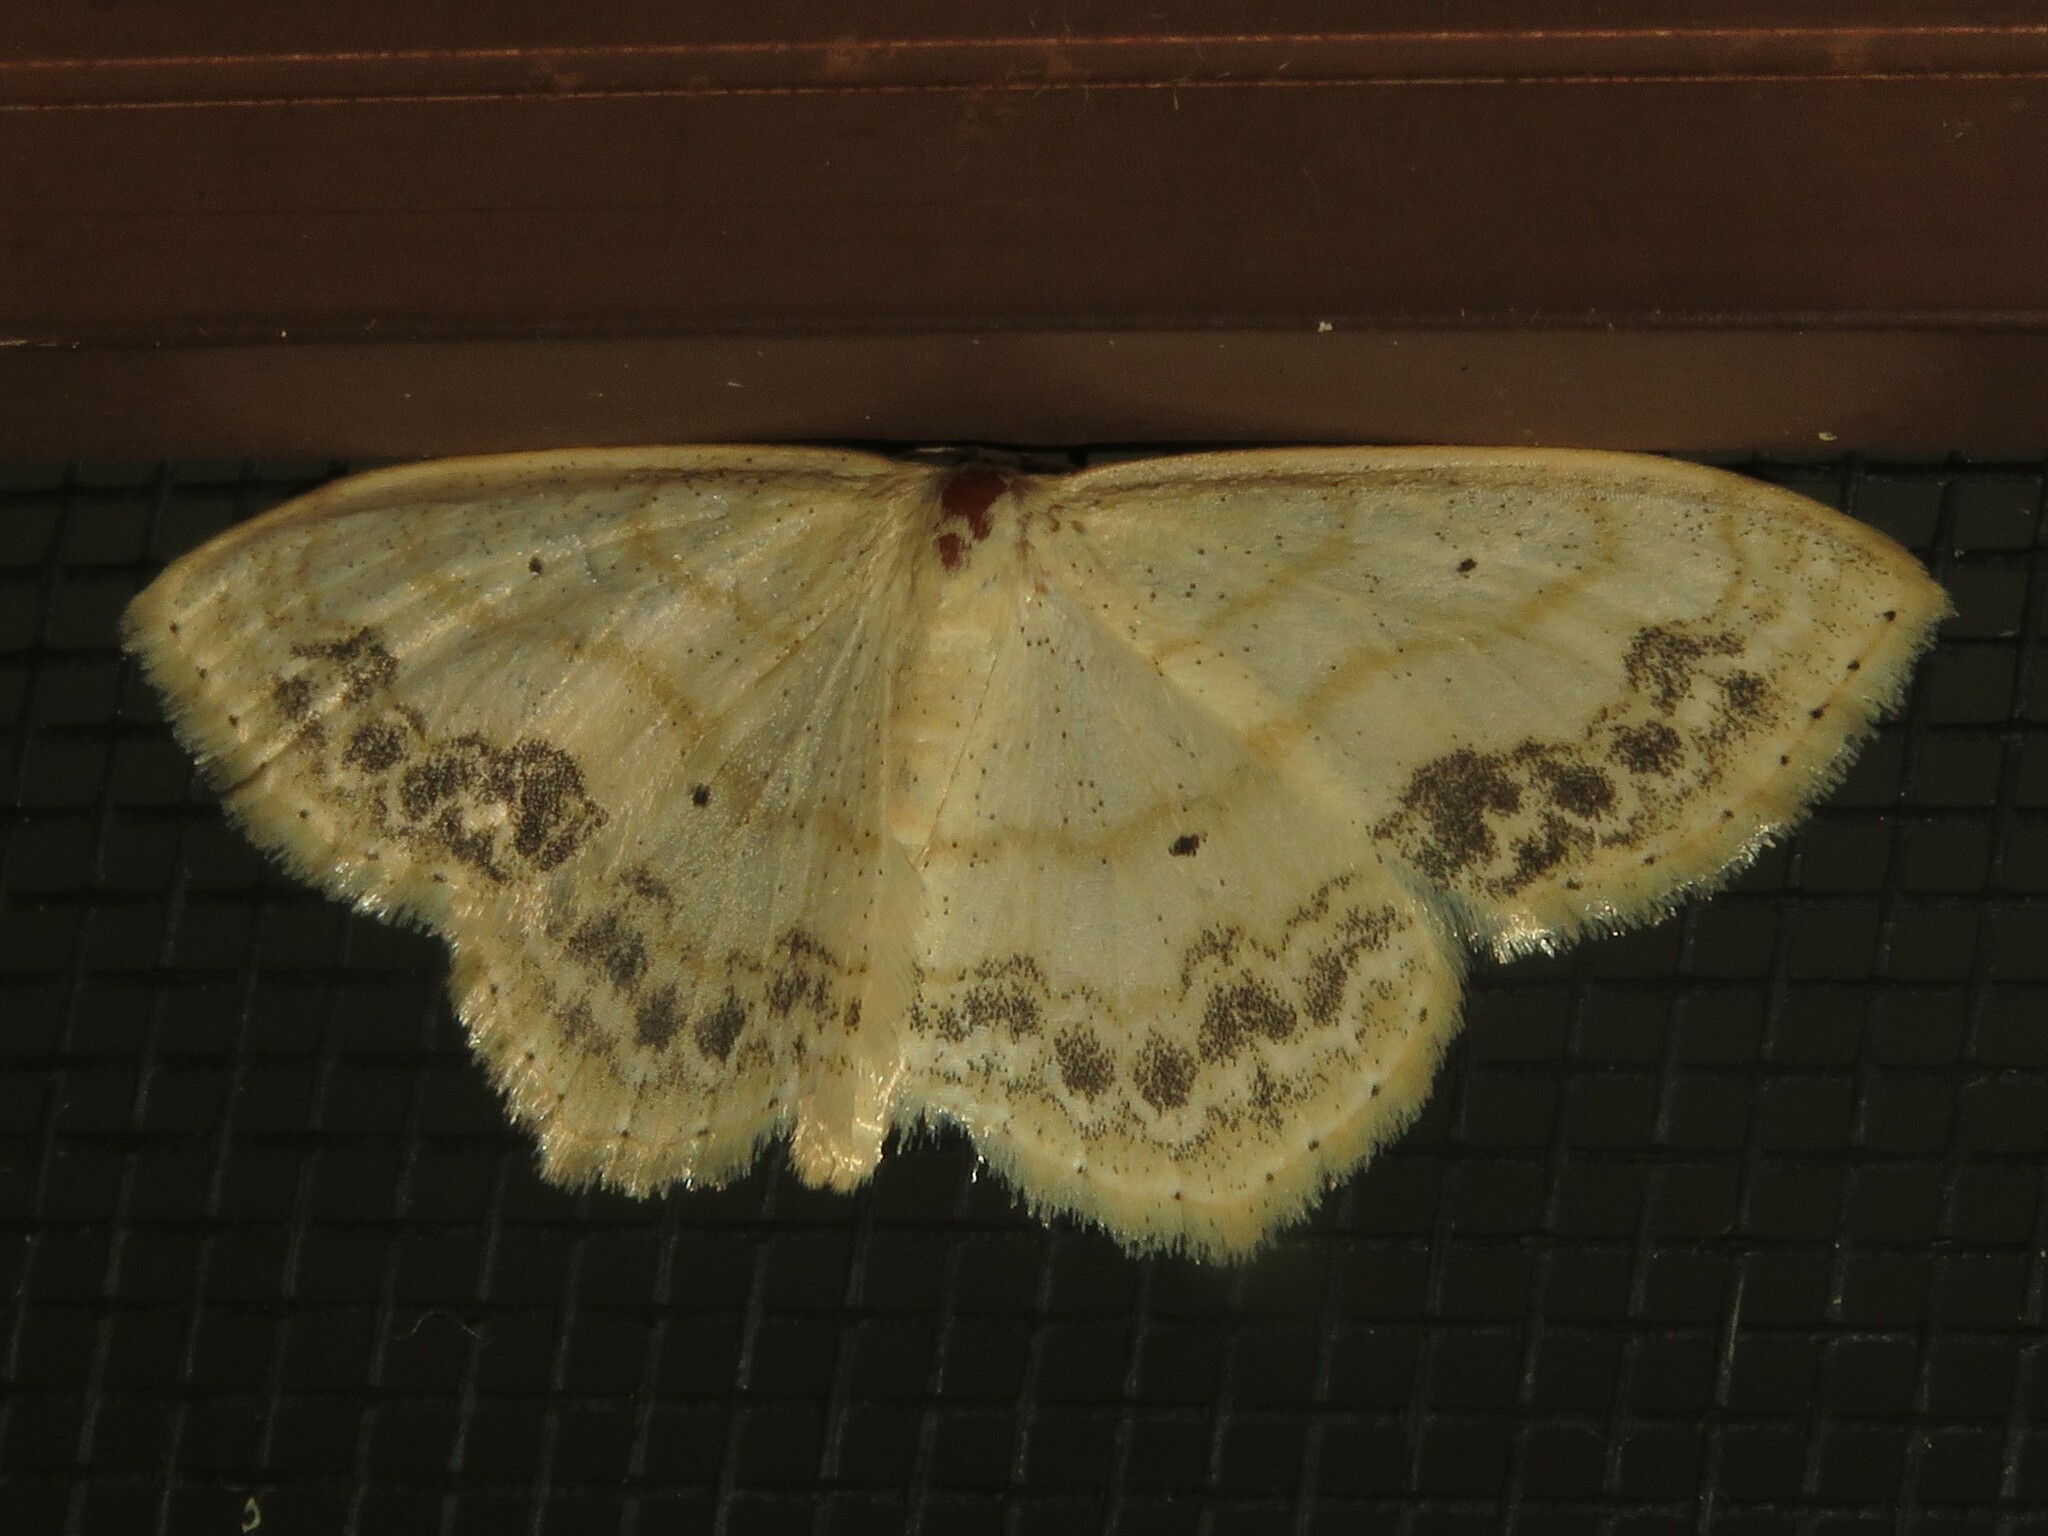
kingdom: Animalia
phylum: Arthropoda
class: Insecta
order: Lepidoptera
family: Geometridae
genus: Scopula
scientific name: Scopula limboundata
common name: Large lace border
